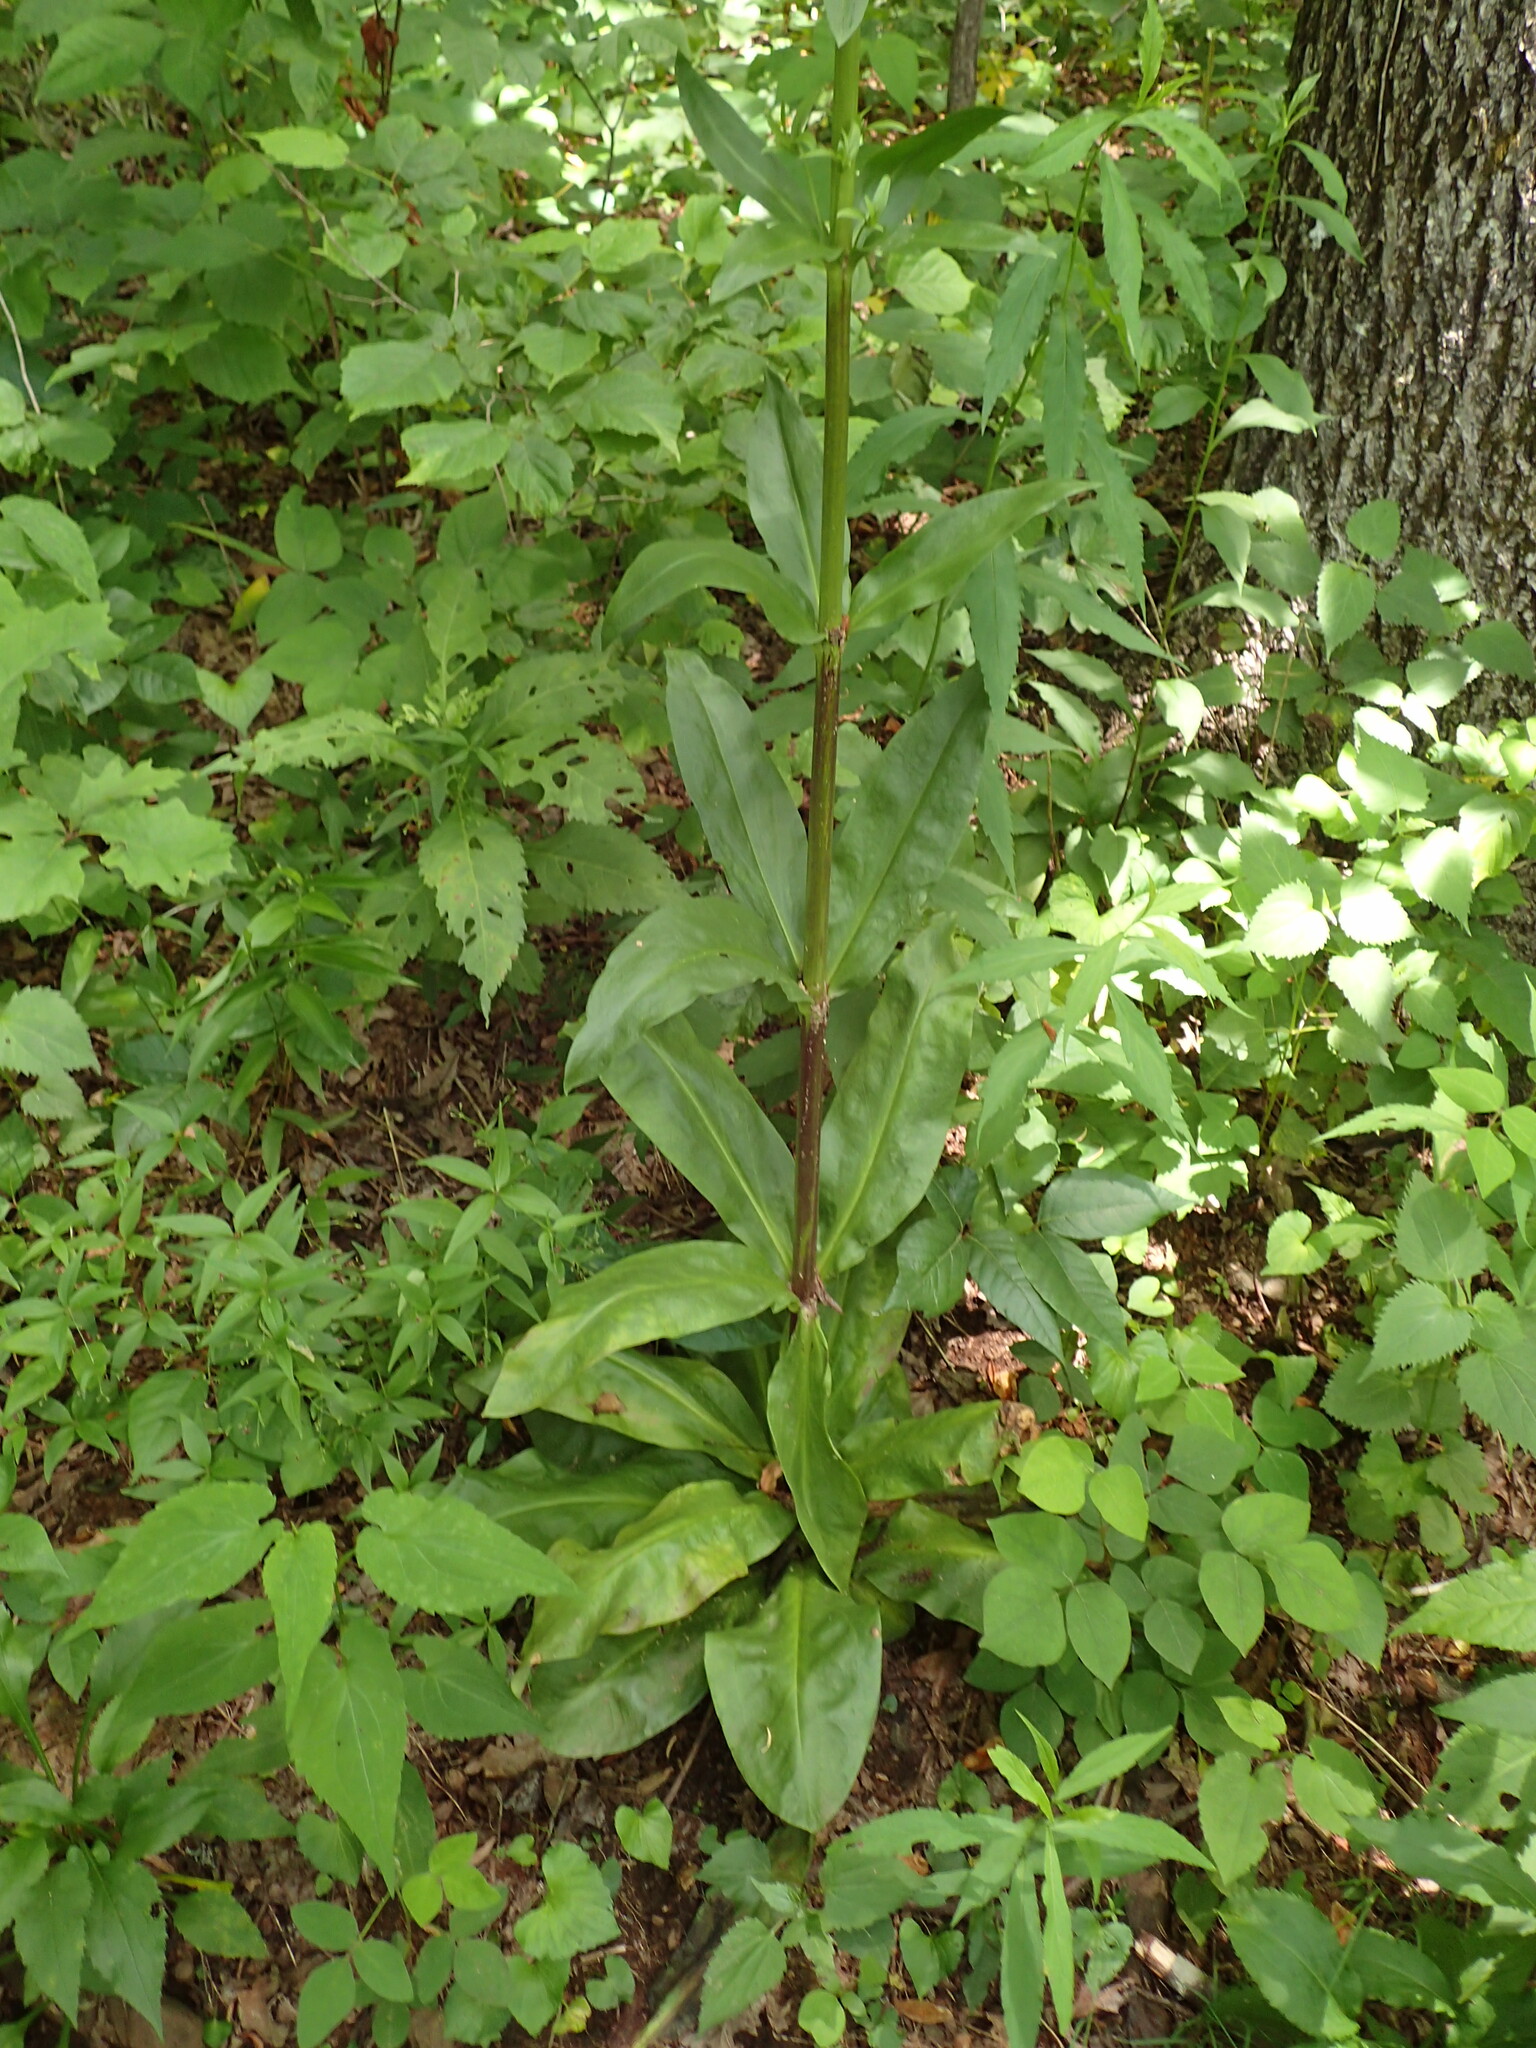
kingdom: Plantae
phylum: Tracheophyta
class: Magnoliopsida
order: Gentianales
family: Gentianaceae
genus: Frasera
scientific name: Frasera caroliniensis
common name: American columbo
